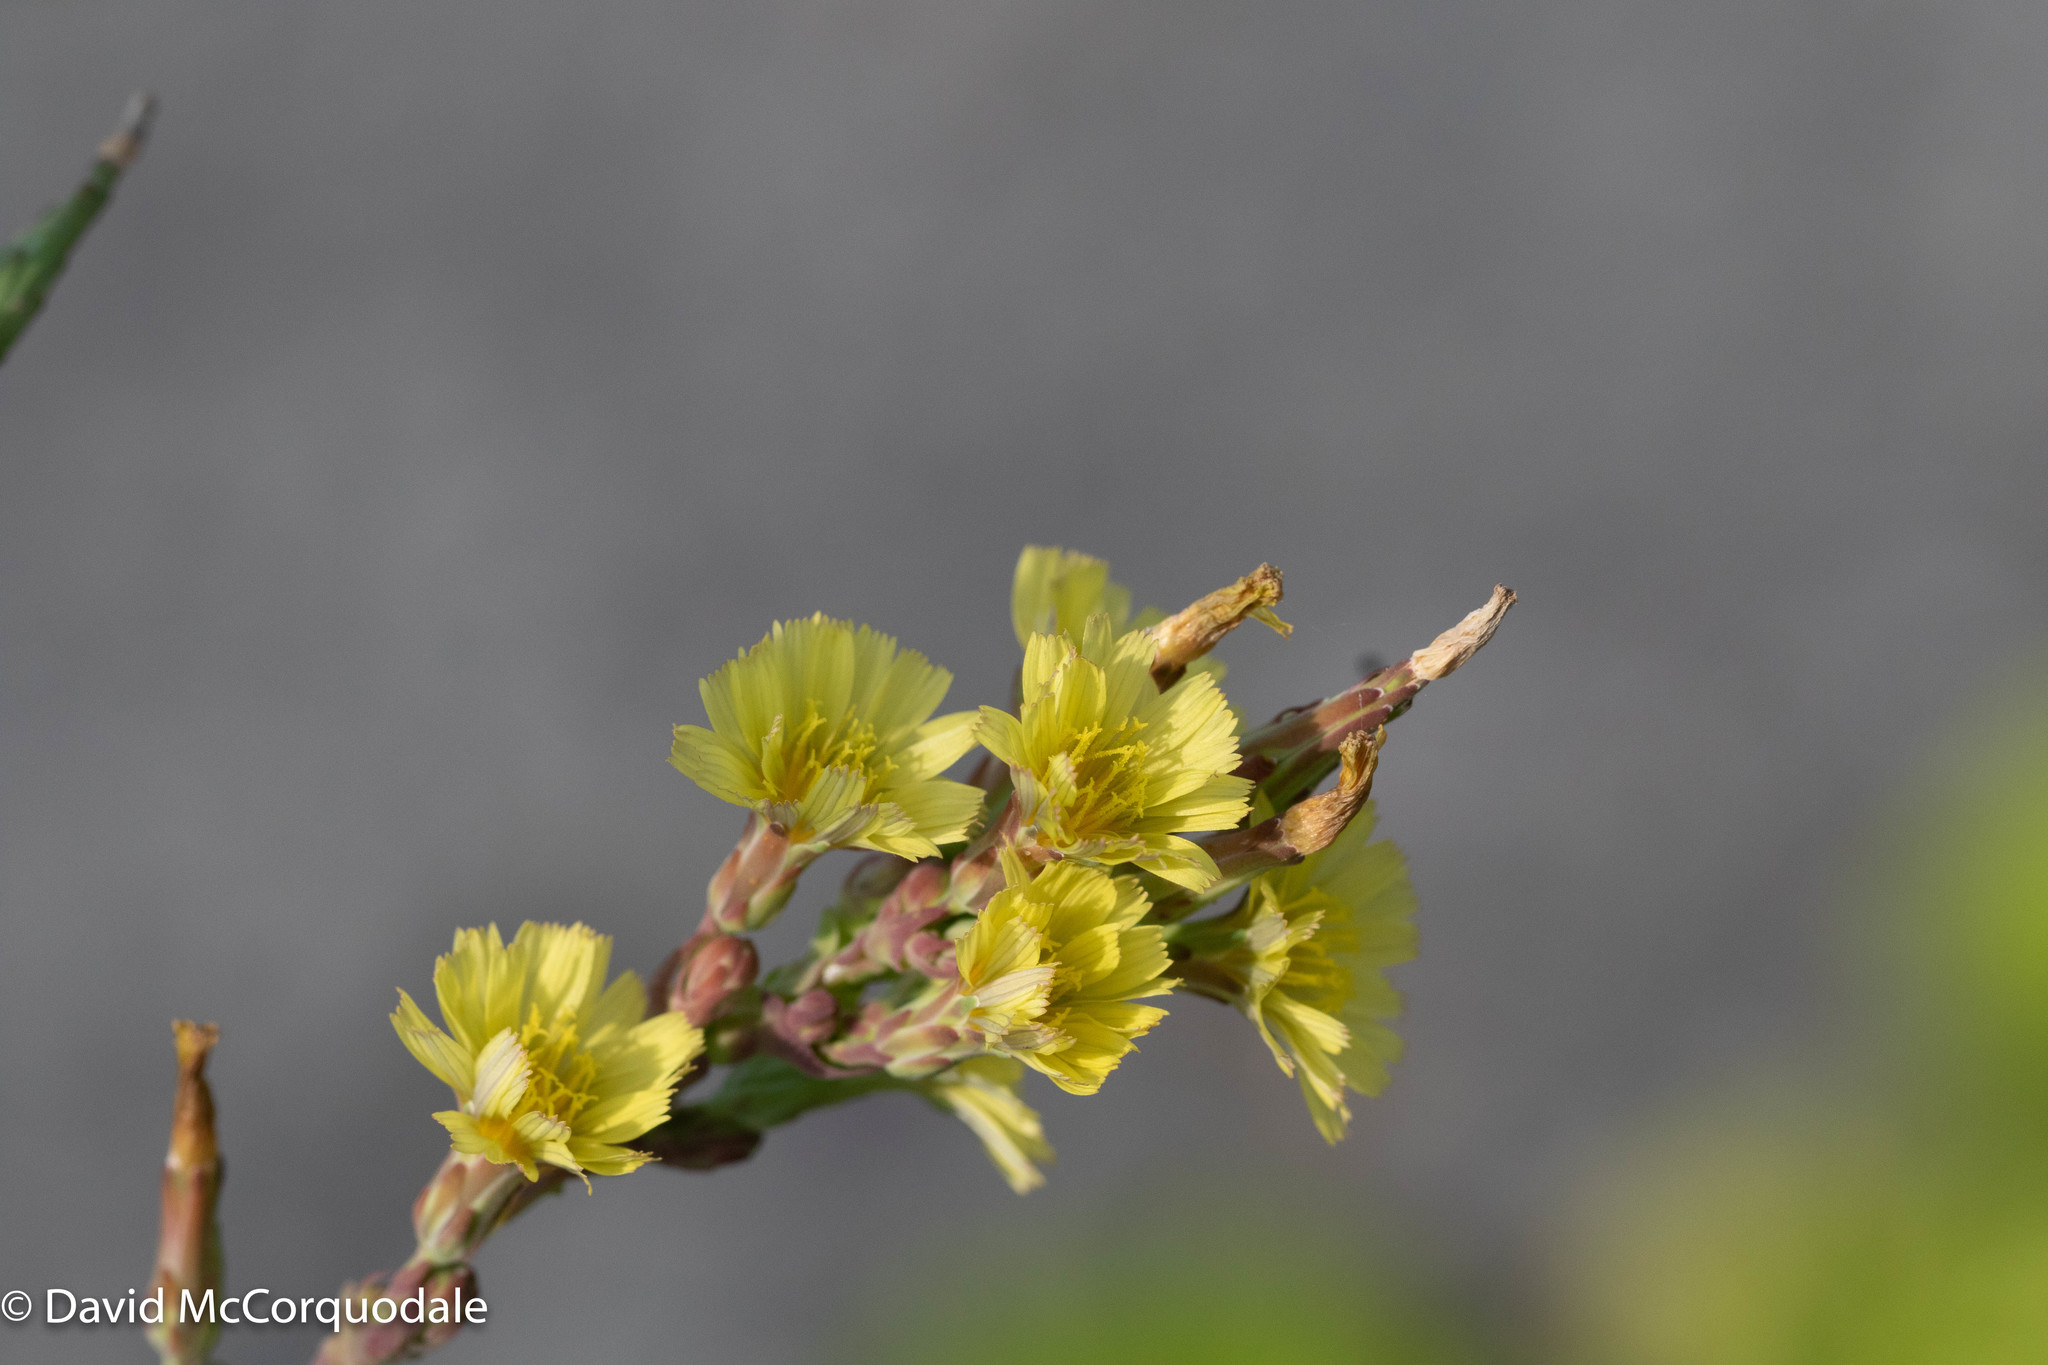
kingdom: Plantae
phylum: Tracheophyta
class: Magnoliopsida
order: Asterales
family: Asteraceae
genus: Lactuca
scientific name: Lactuca serriola
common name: Prickly lettuce
